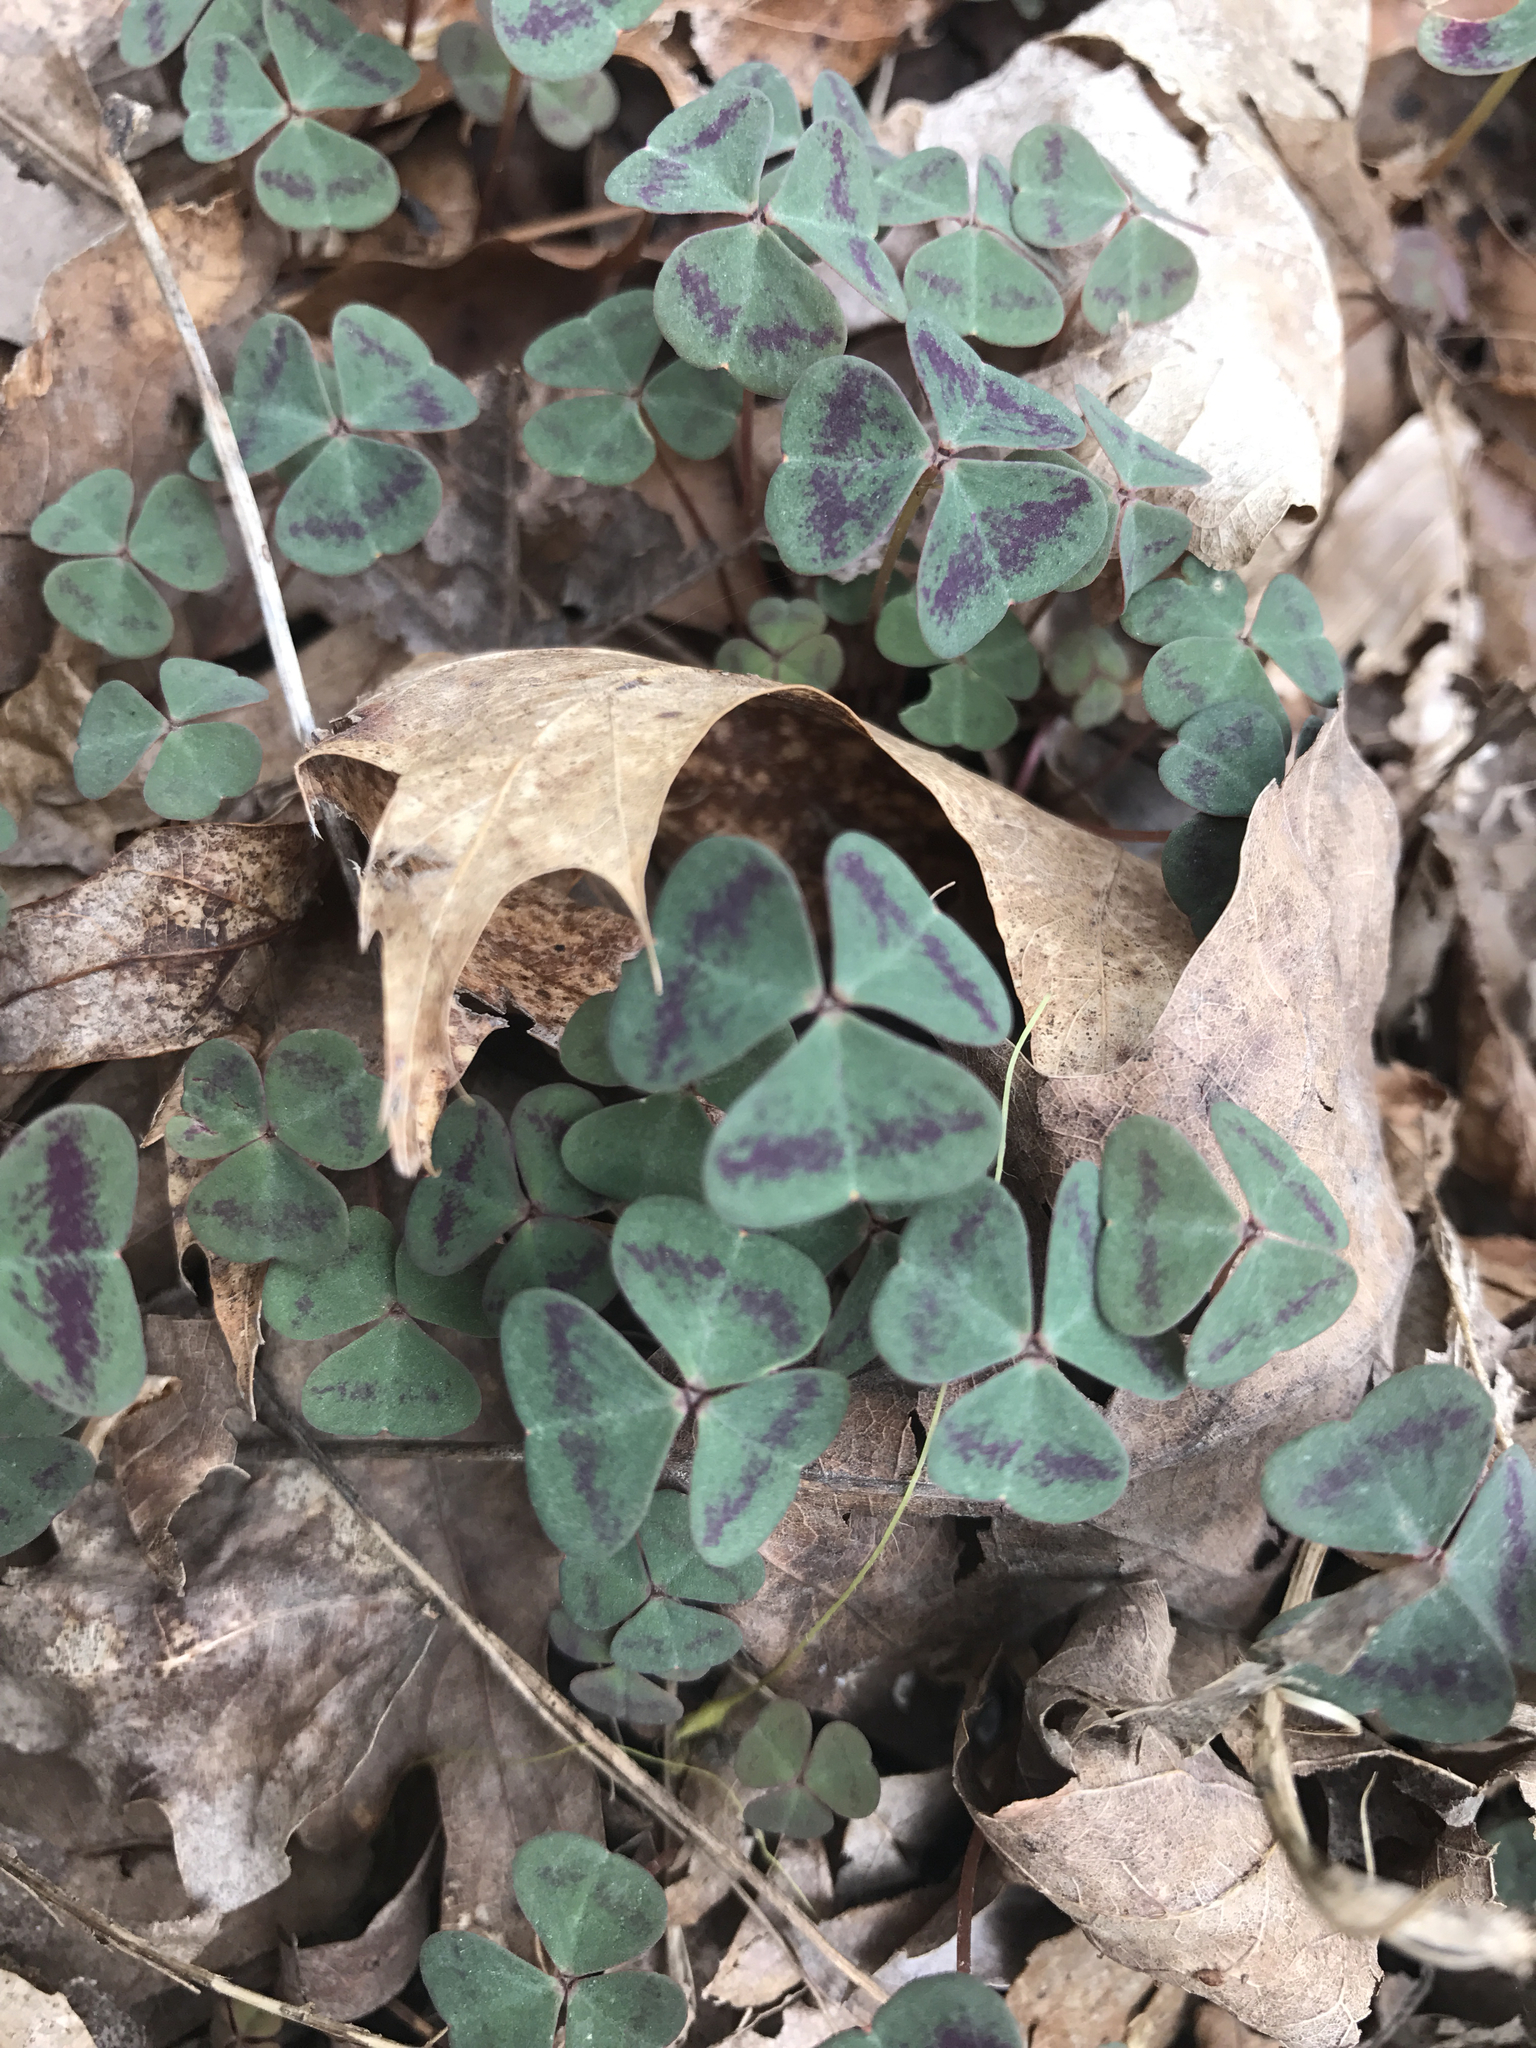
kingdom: Plantae
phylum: Tracheophyta
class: Magnoliopsida
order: Ranunculales
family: Ranunculaceae
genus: Hydrastis
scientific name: Hydrastis canadensis
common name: Goldenseal
